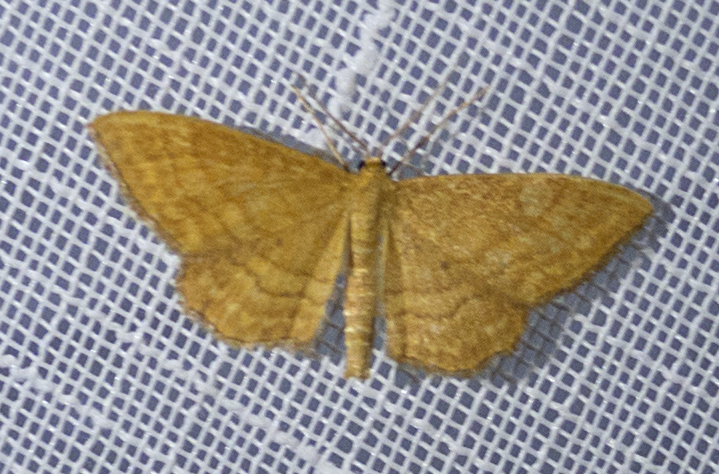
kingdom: Animalia
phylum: Arthropoda
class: Insecta
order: Lepidoptera
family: Geometridae
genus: Idaea
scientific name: Idaea ochrata
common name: Bright wave
